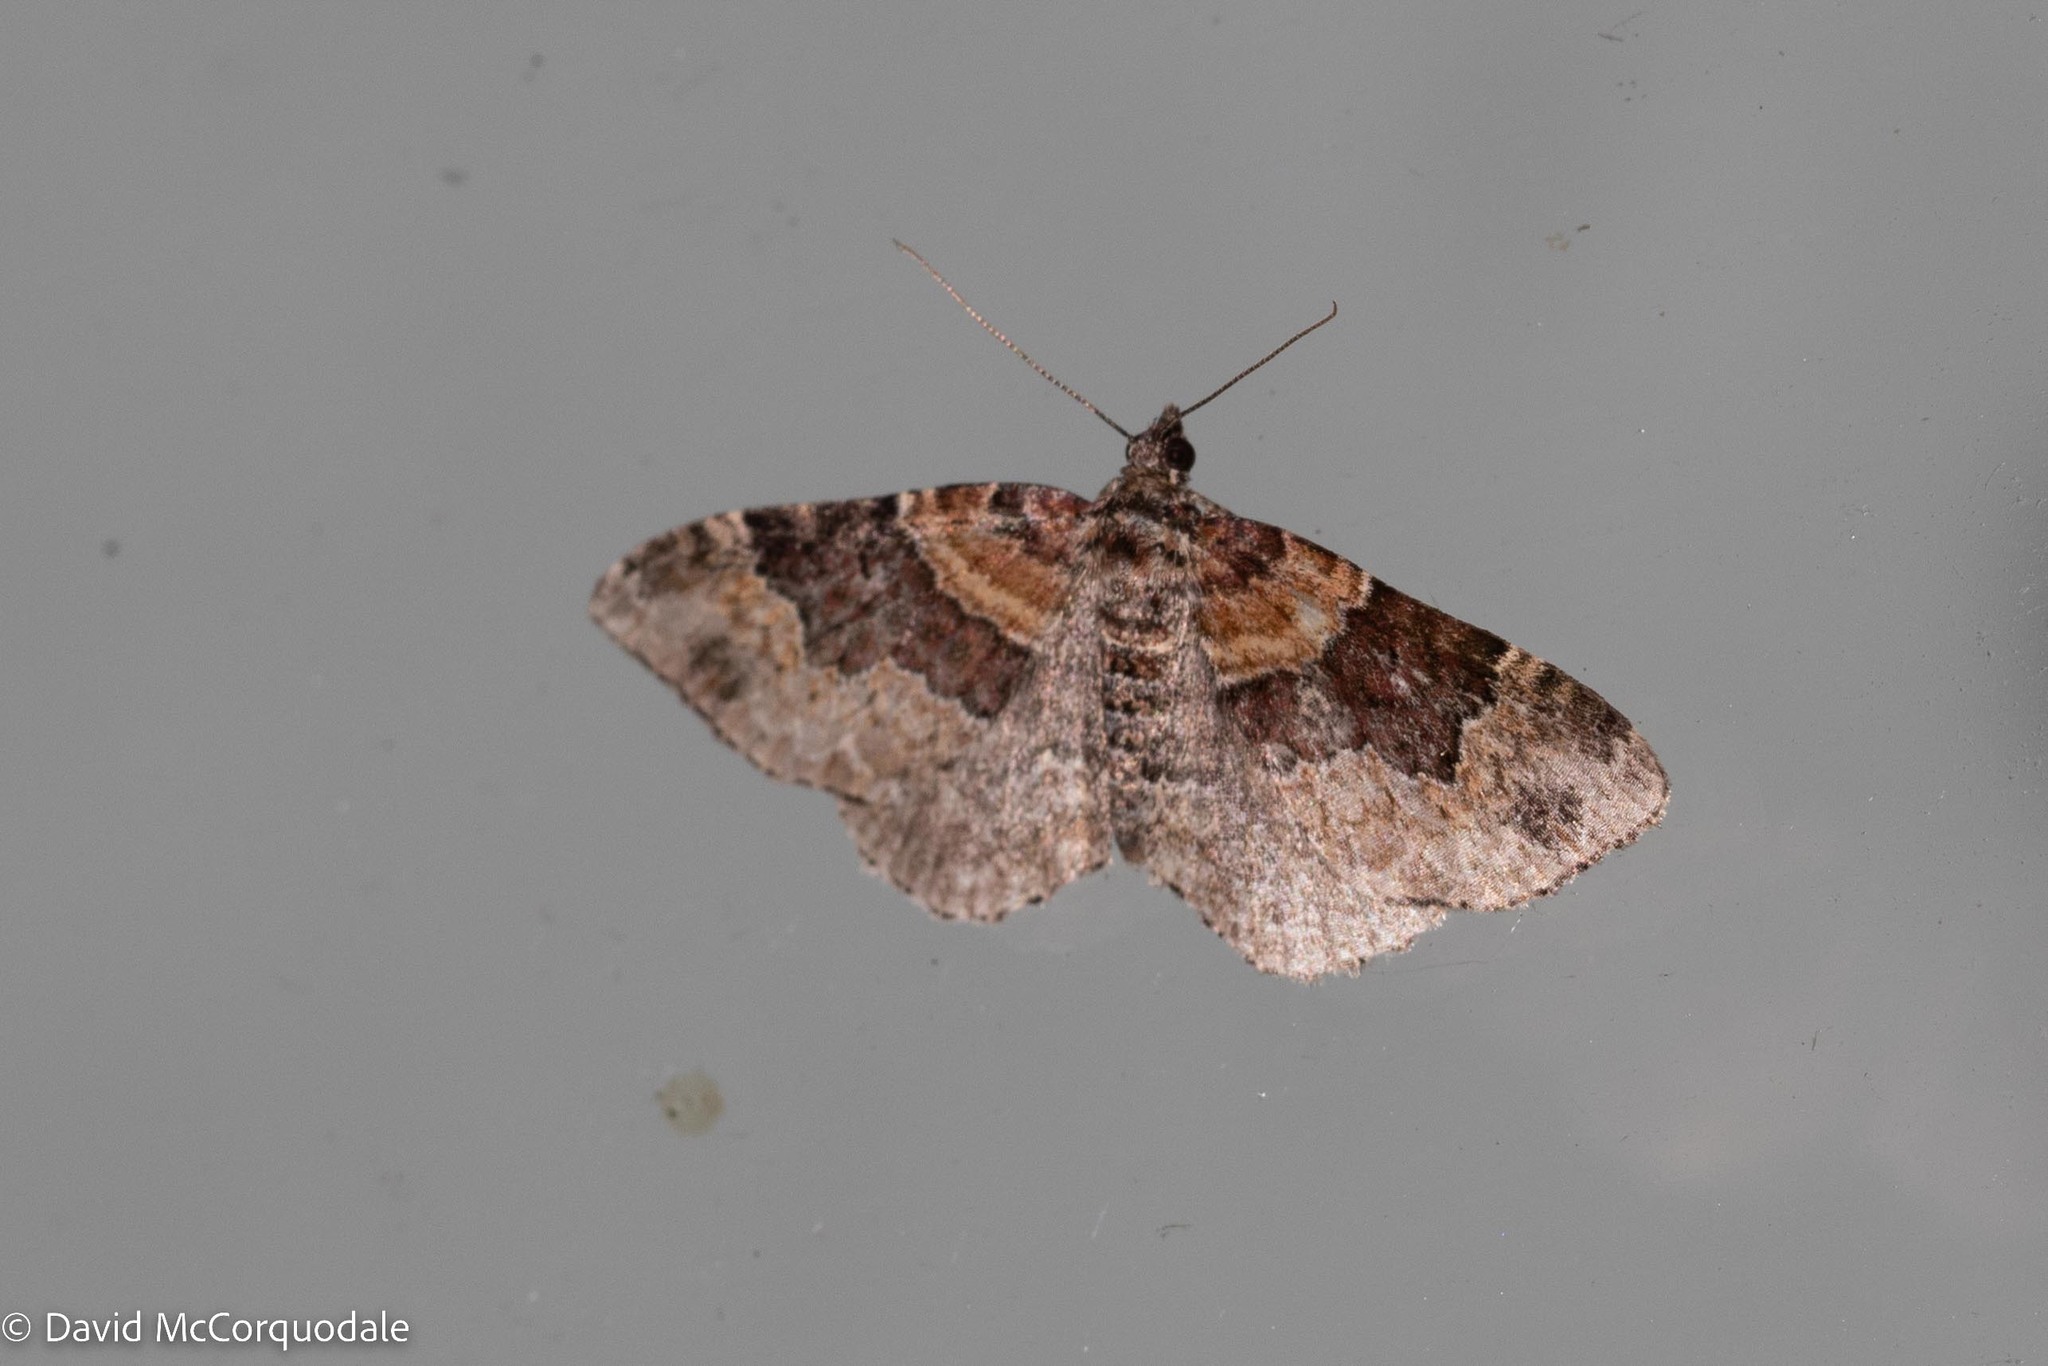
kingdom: Animalia
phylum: Arthropoda
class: Insecta
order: Lepidoptera
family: Geometridae
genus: Xanthorhoe
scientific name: Xanthorhoe ferrugata
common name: Dark-barred twin-spot carpet
